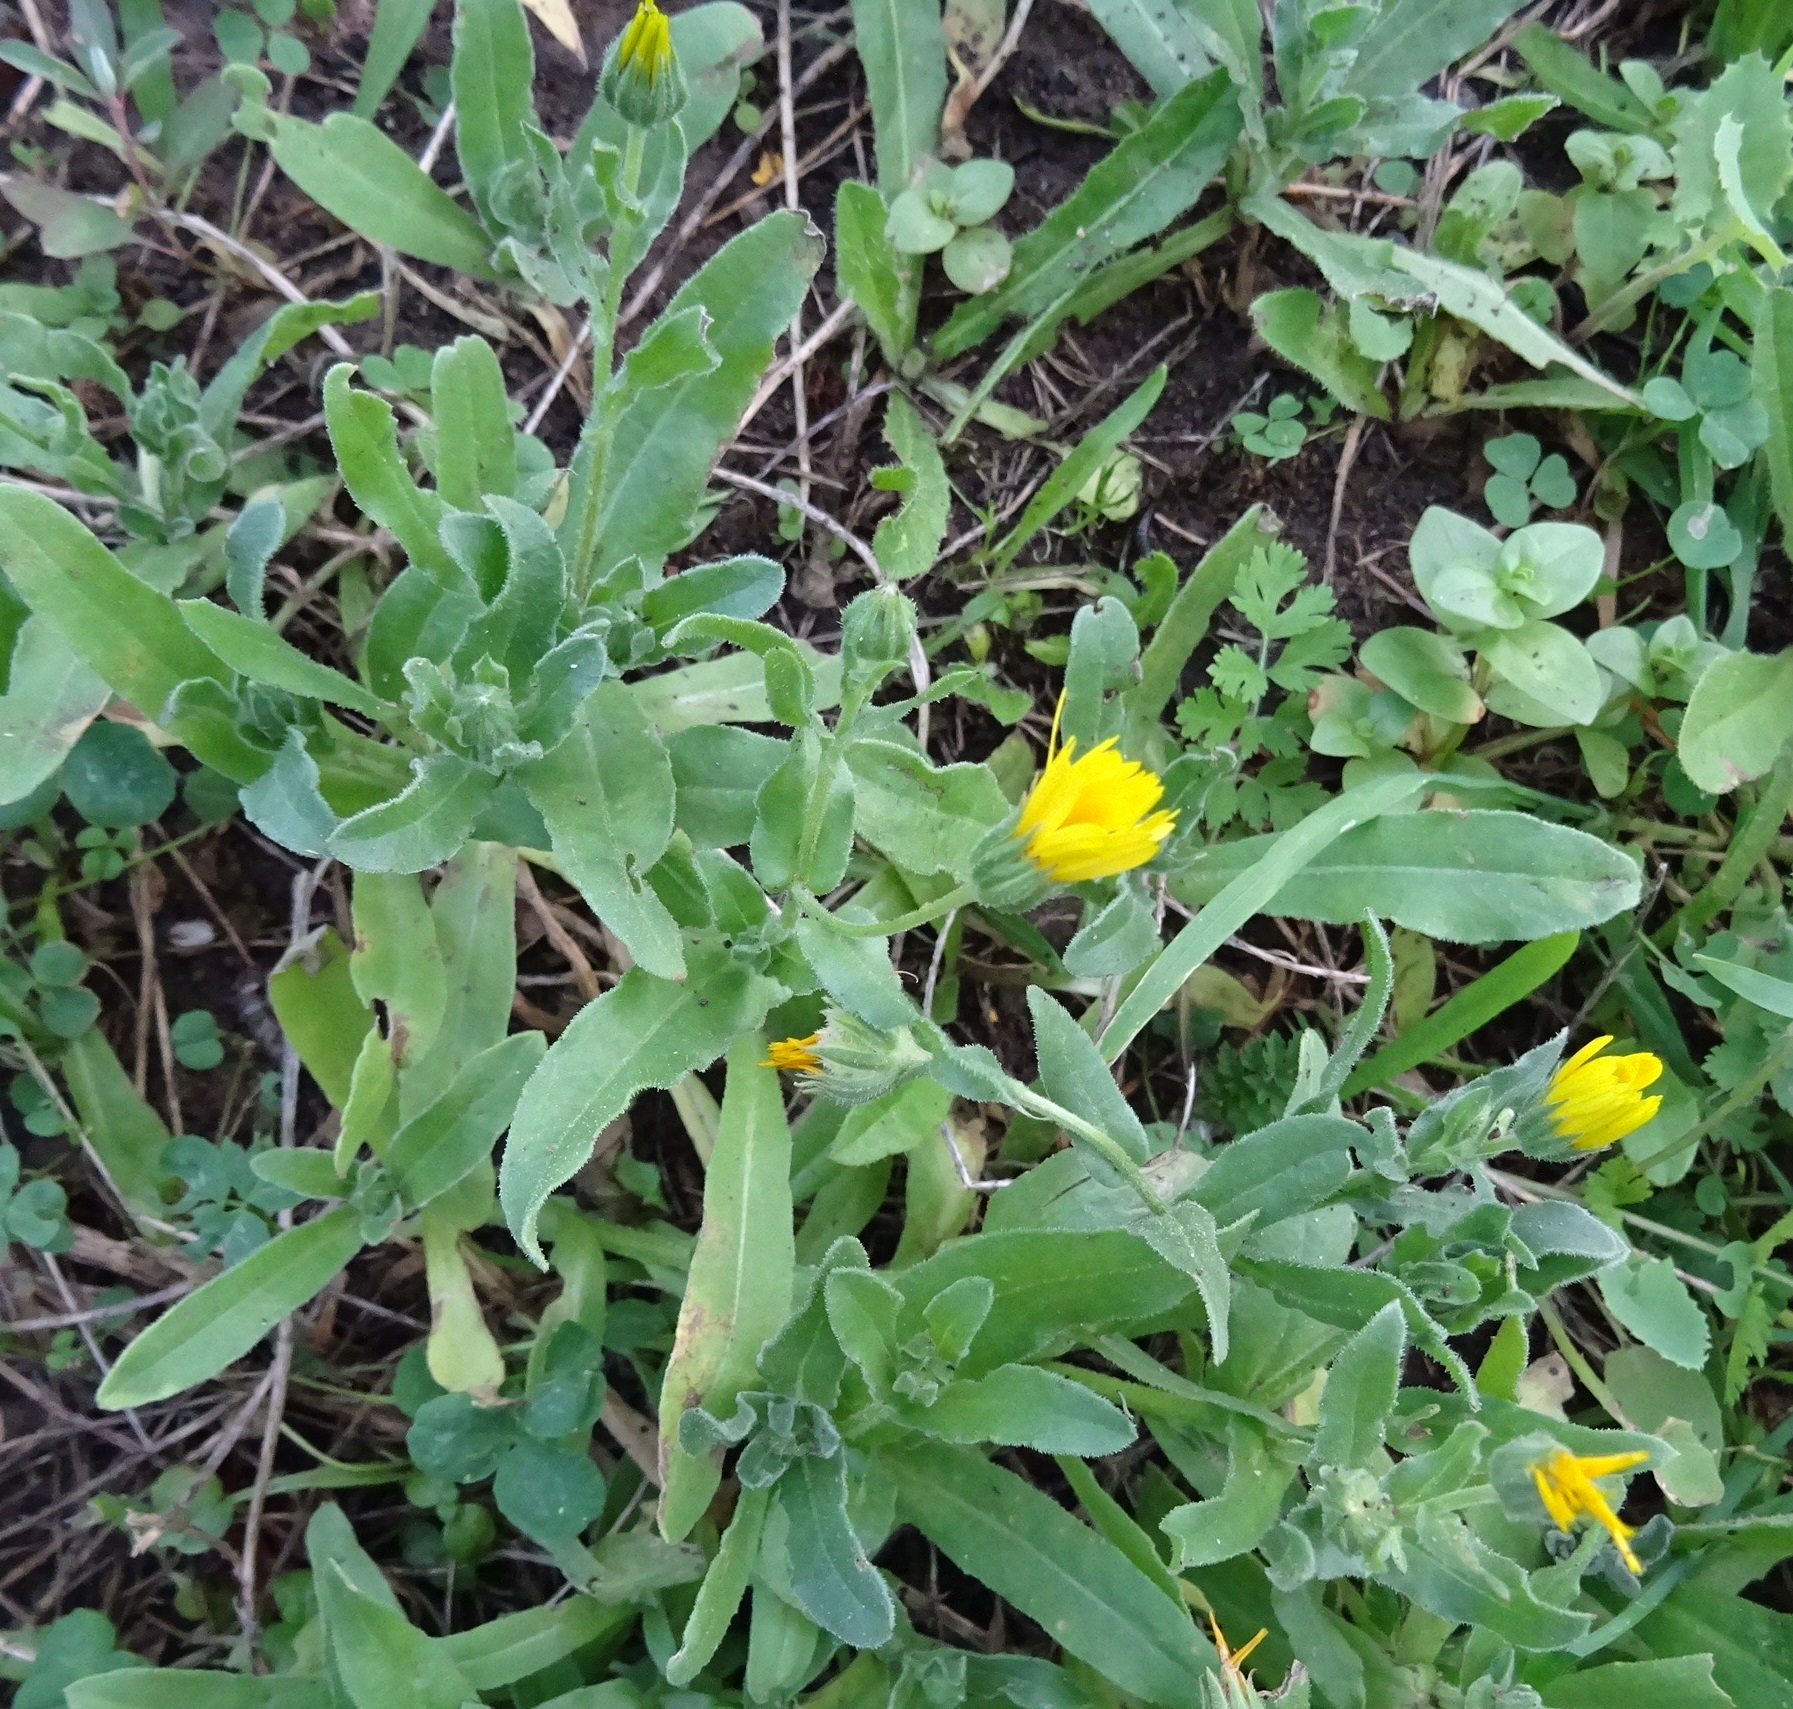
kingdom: Plantae
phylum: Tracheophyta
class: Magnoliopsida
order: Asterales
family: Asteraceae
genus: Calendula
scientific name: Calendula arvensis
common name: Field marigold
